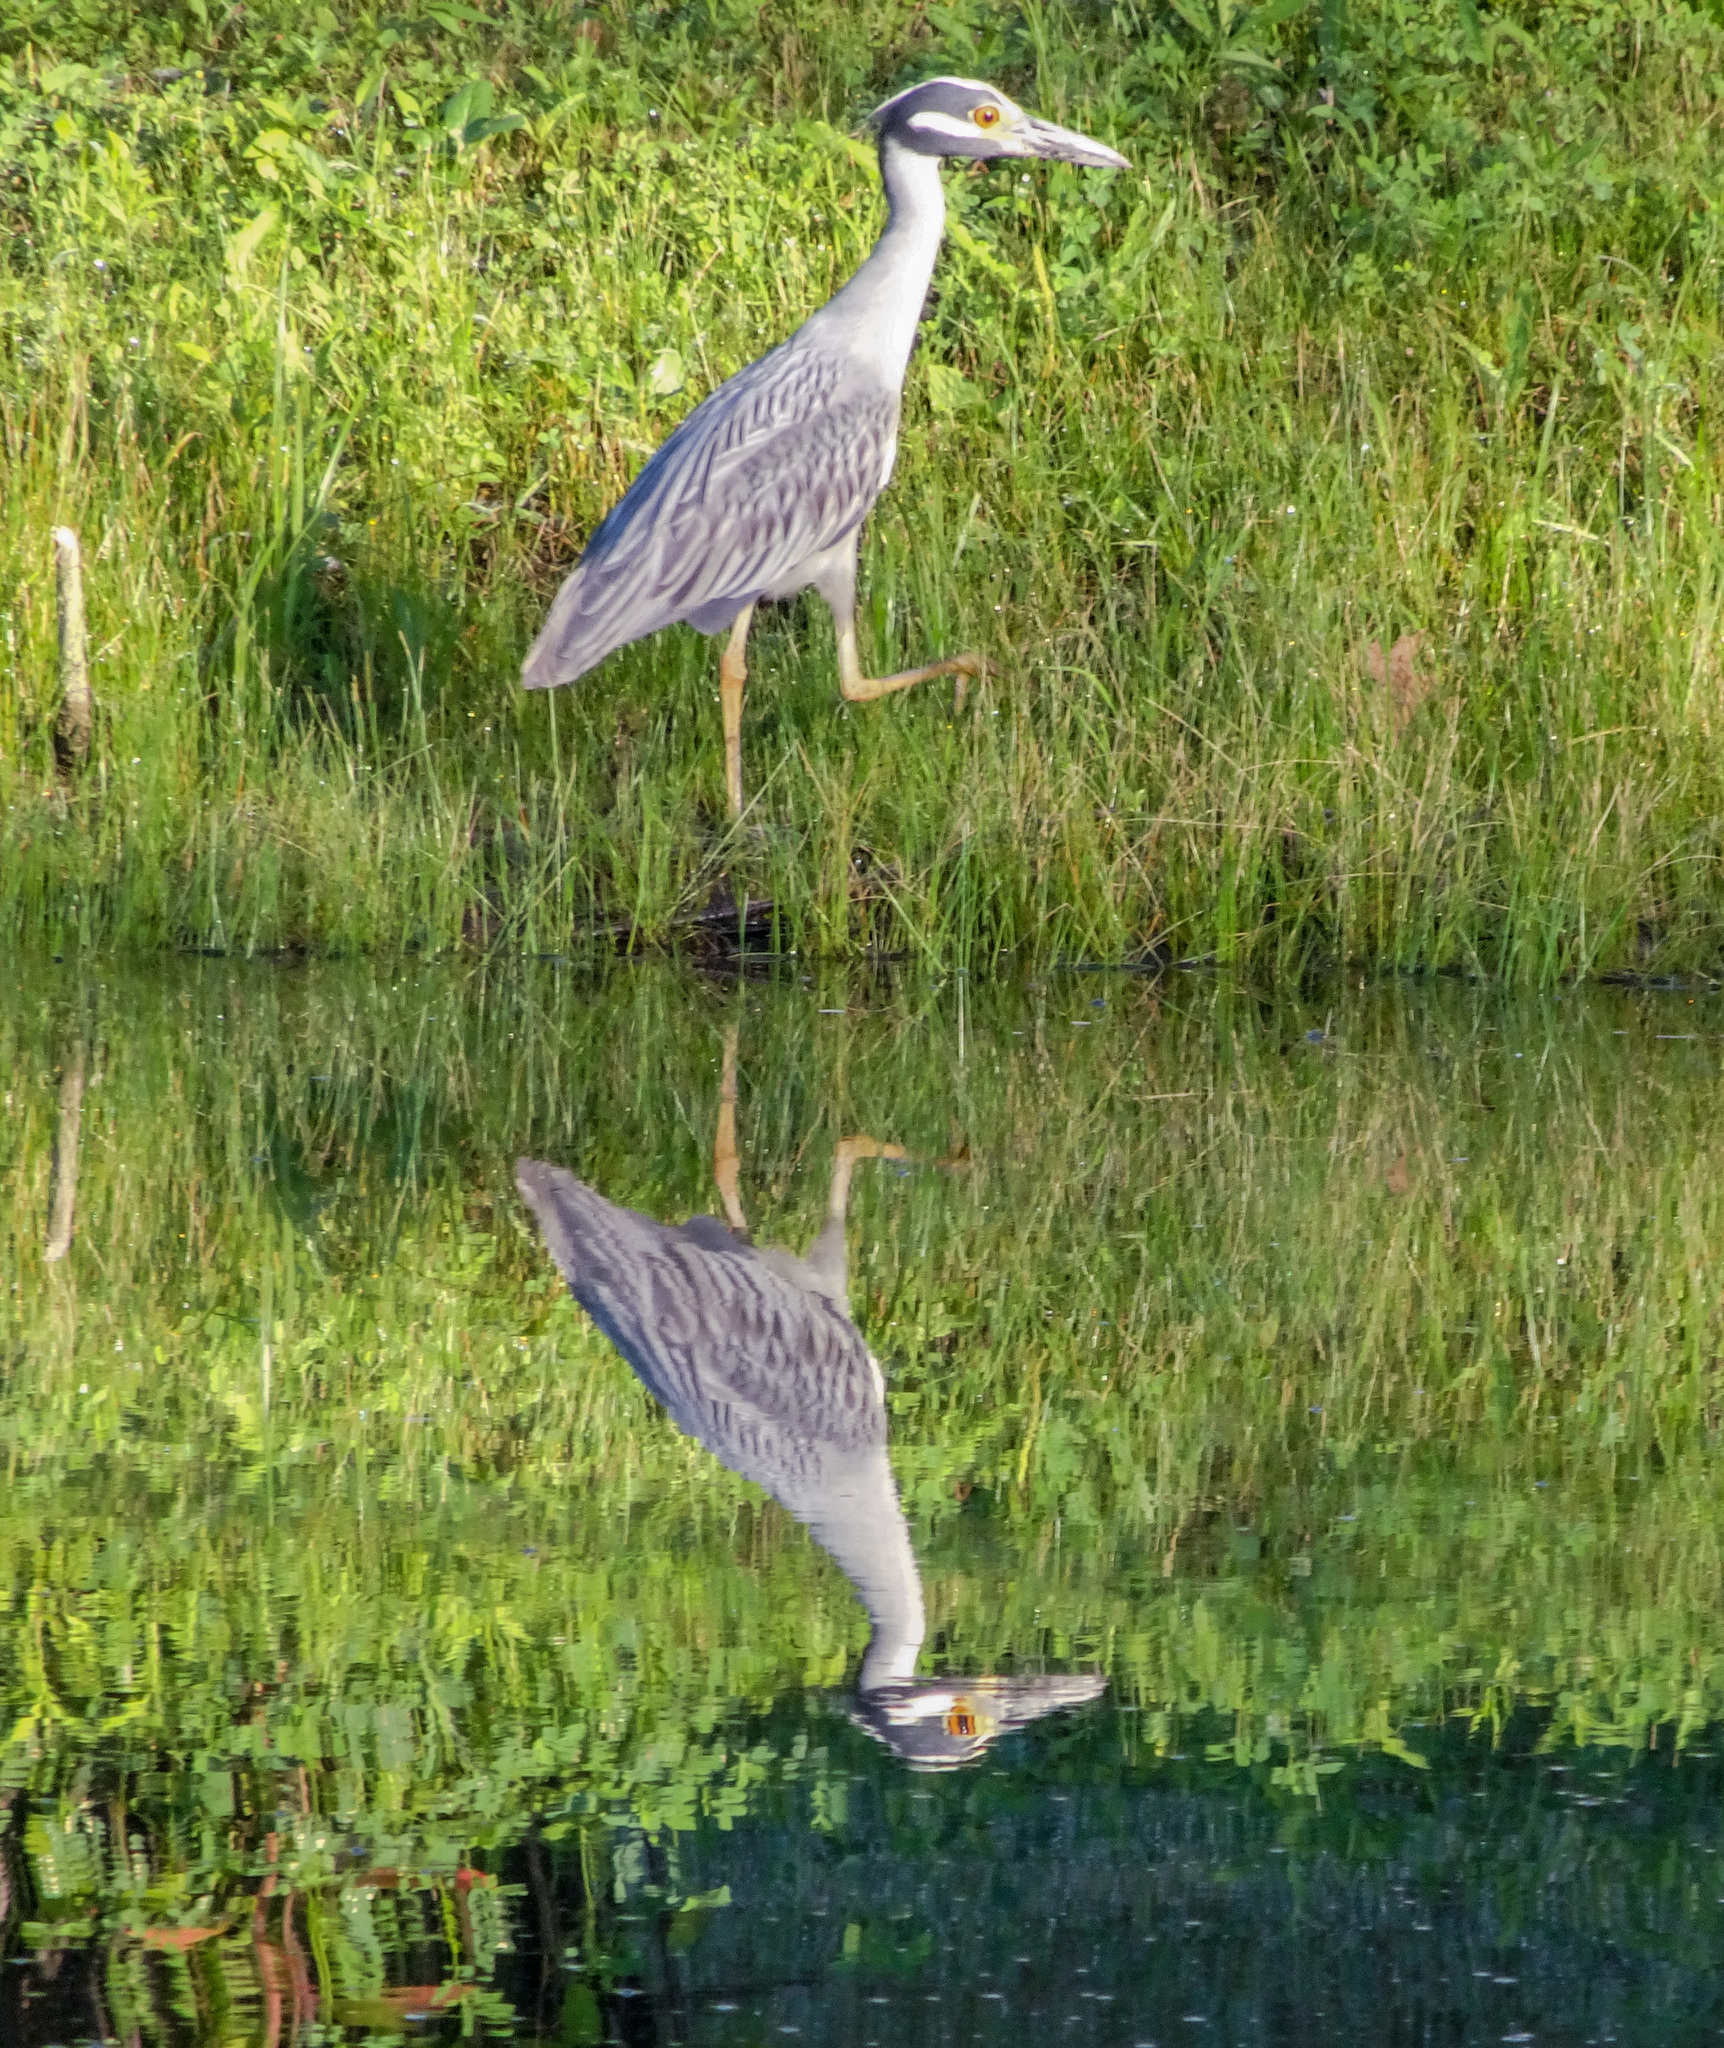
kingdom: Animalia
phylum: Chordata
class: Aves
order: Pelecaniformes
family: Ardeidae
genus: Nyctanassa
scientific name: Nyctanassa violacea
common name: Yellow-crowned night heron
